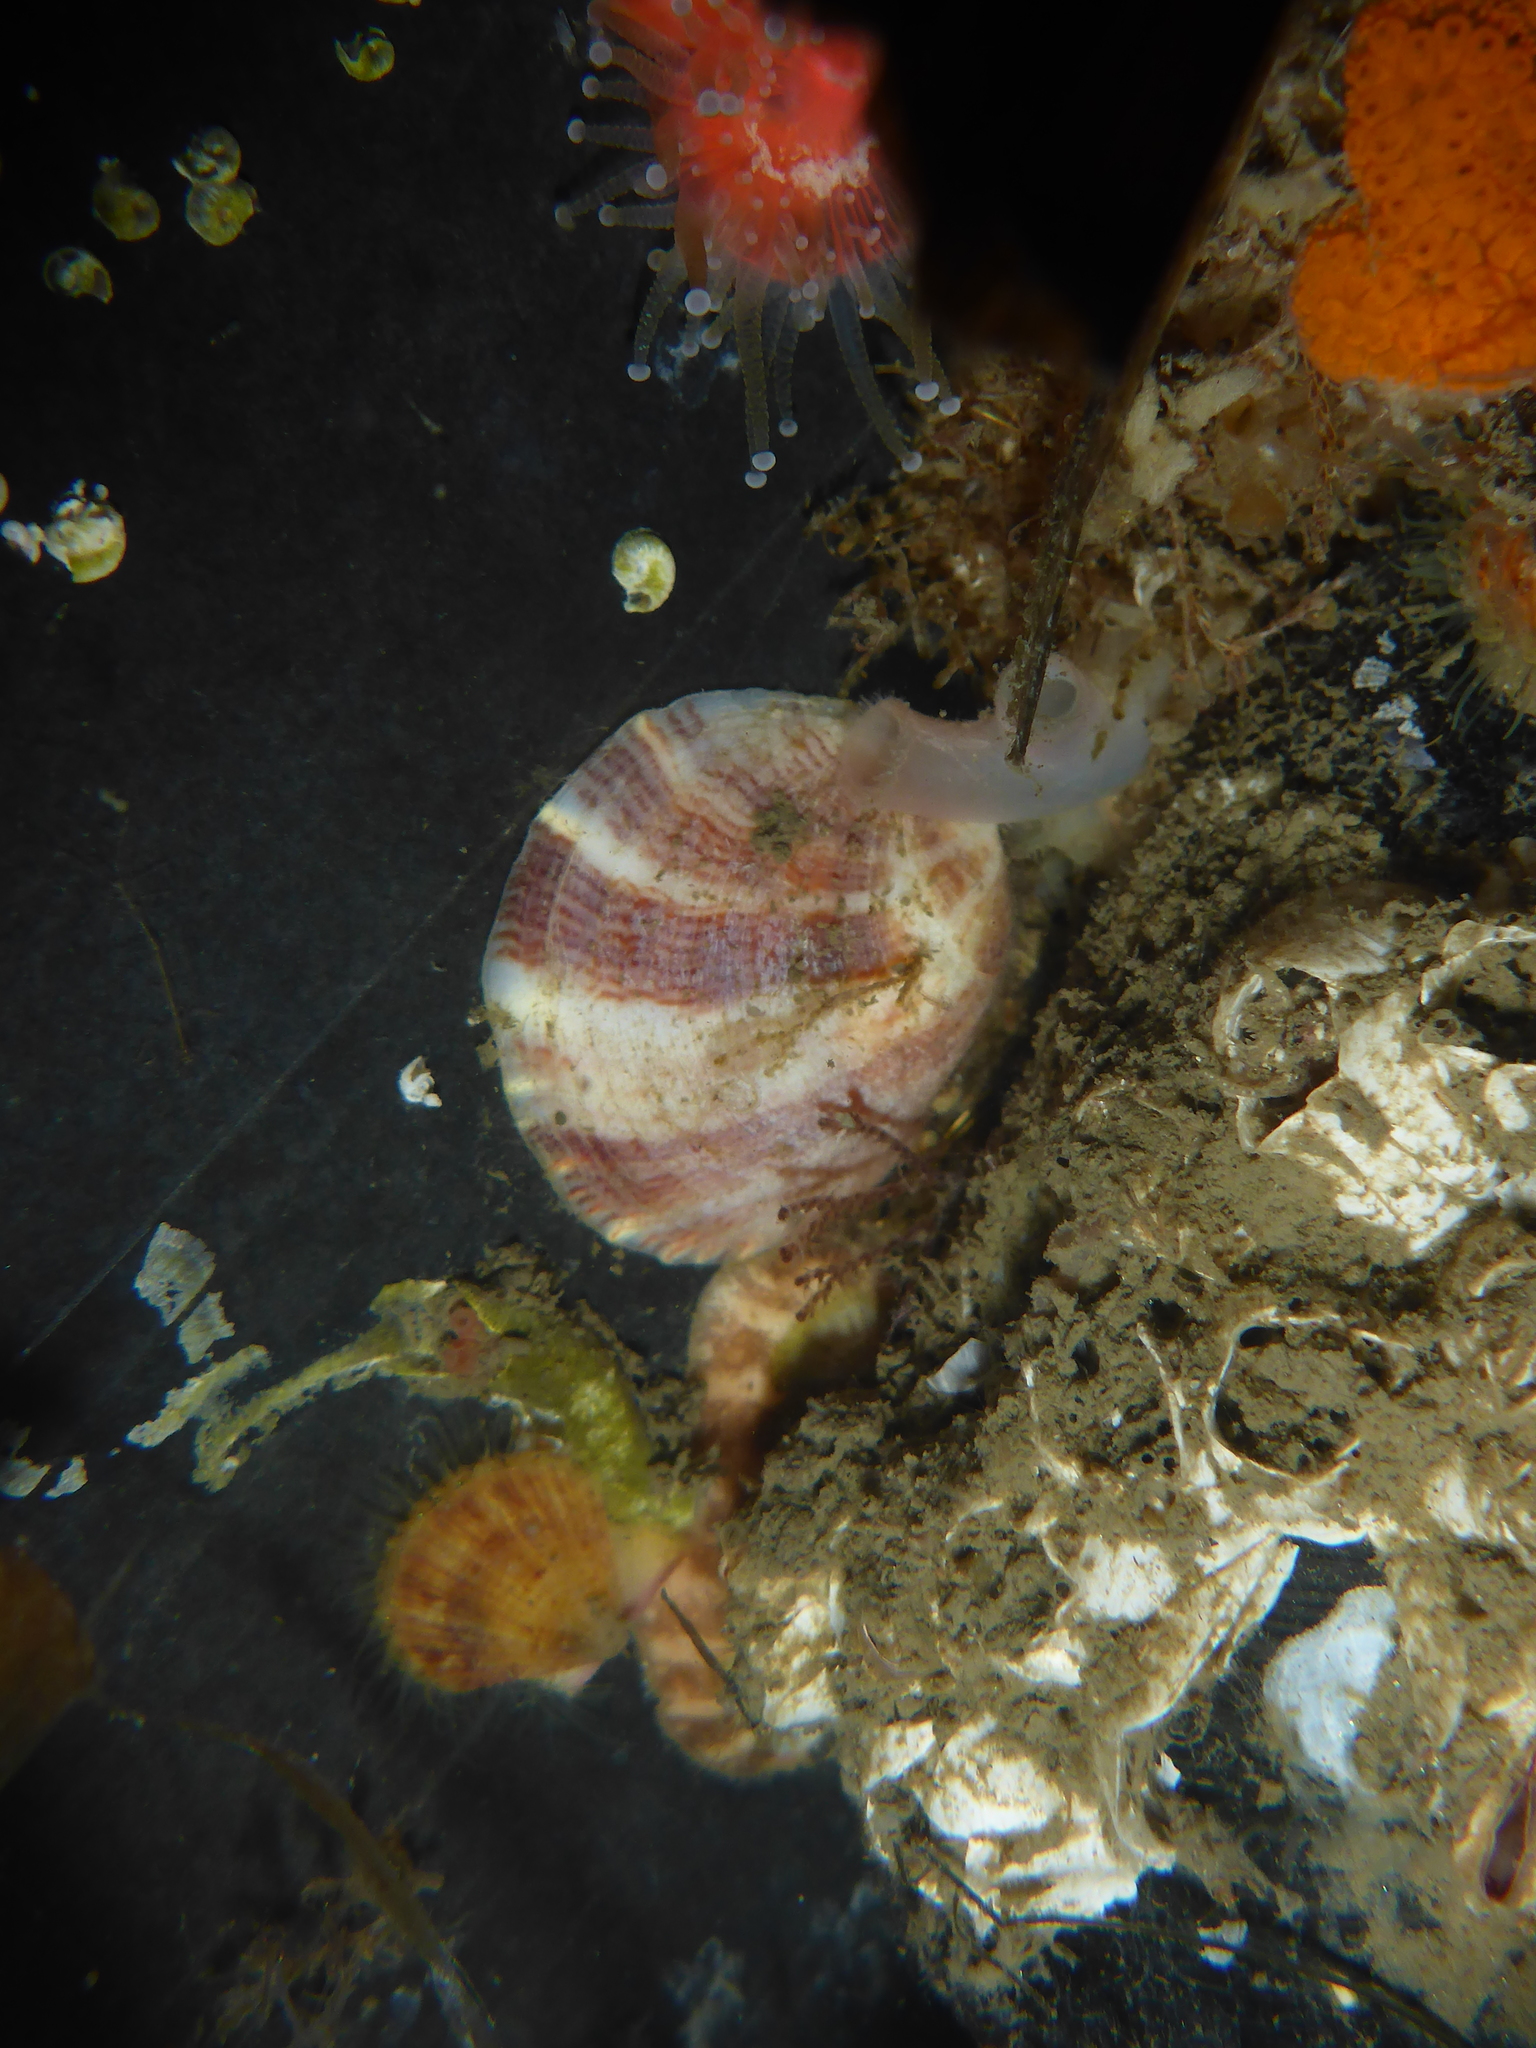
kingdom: Animalia
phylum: Mollusca
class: Gastropoda
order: Littorinimorpha
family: Calyptraeidae
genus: Crepipatella
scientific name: Crepipatella lingulata
